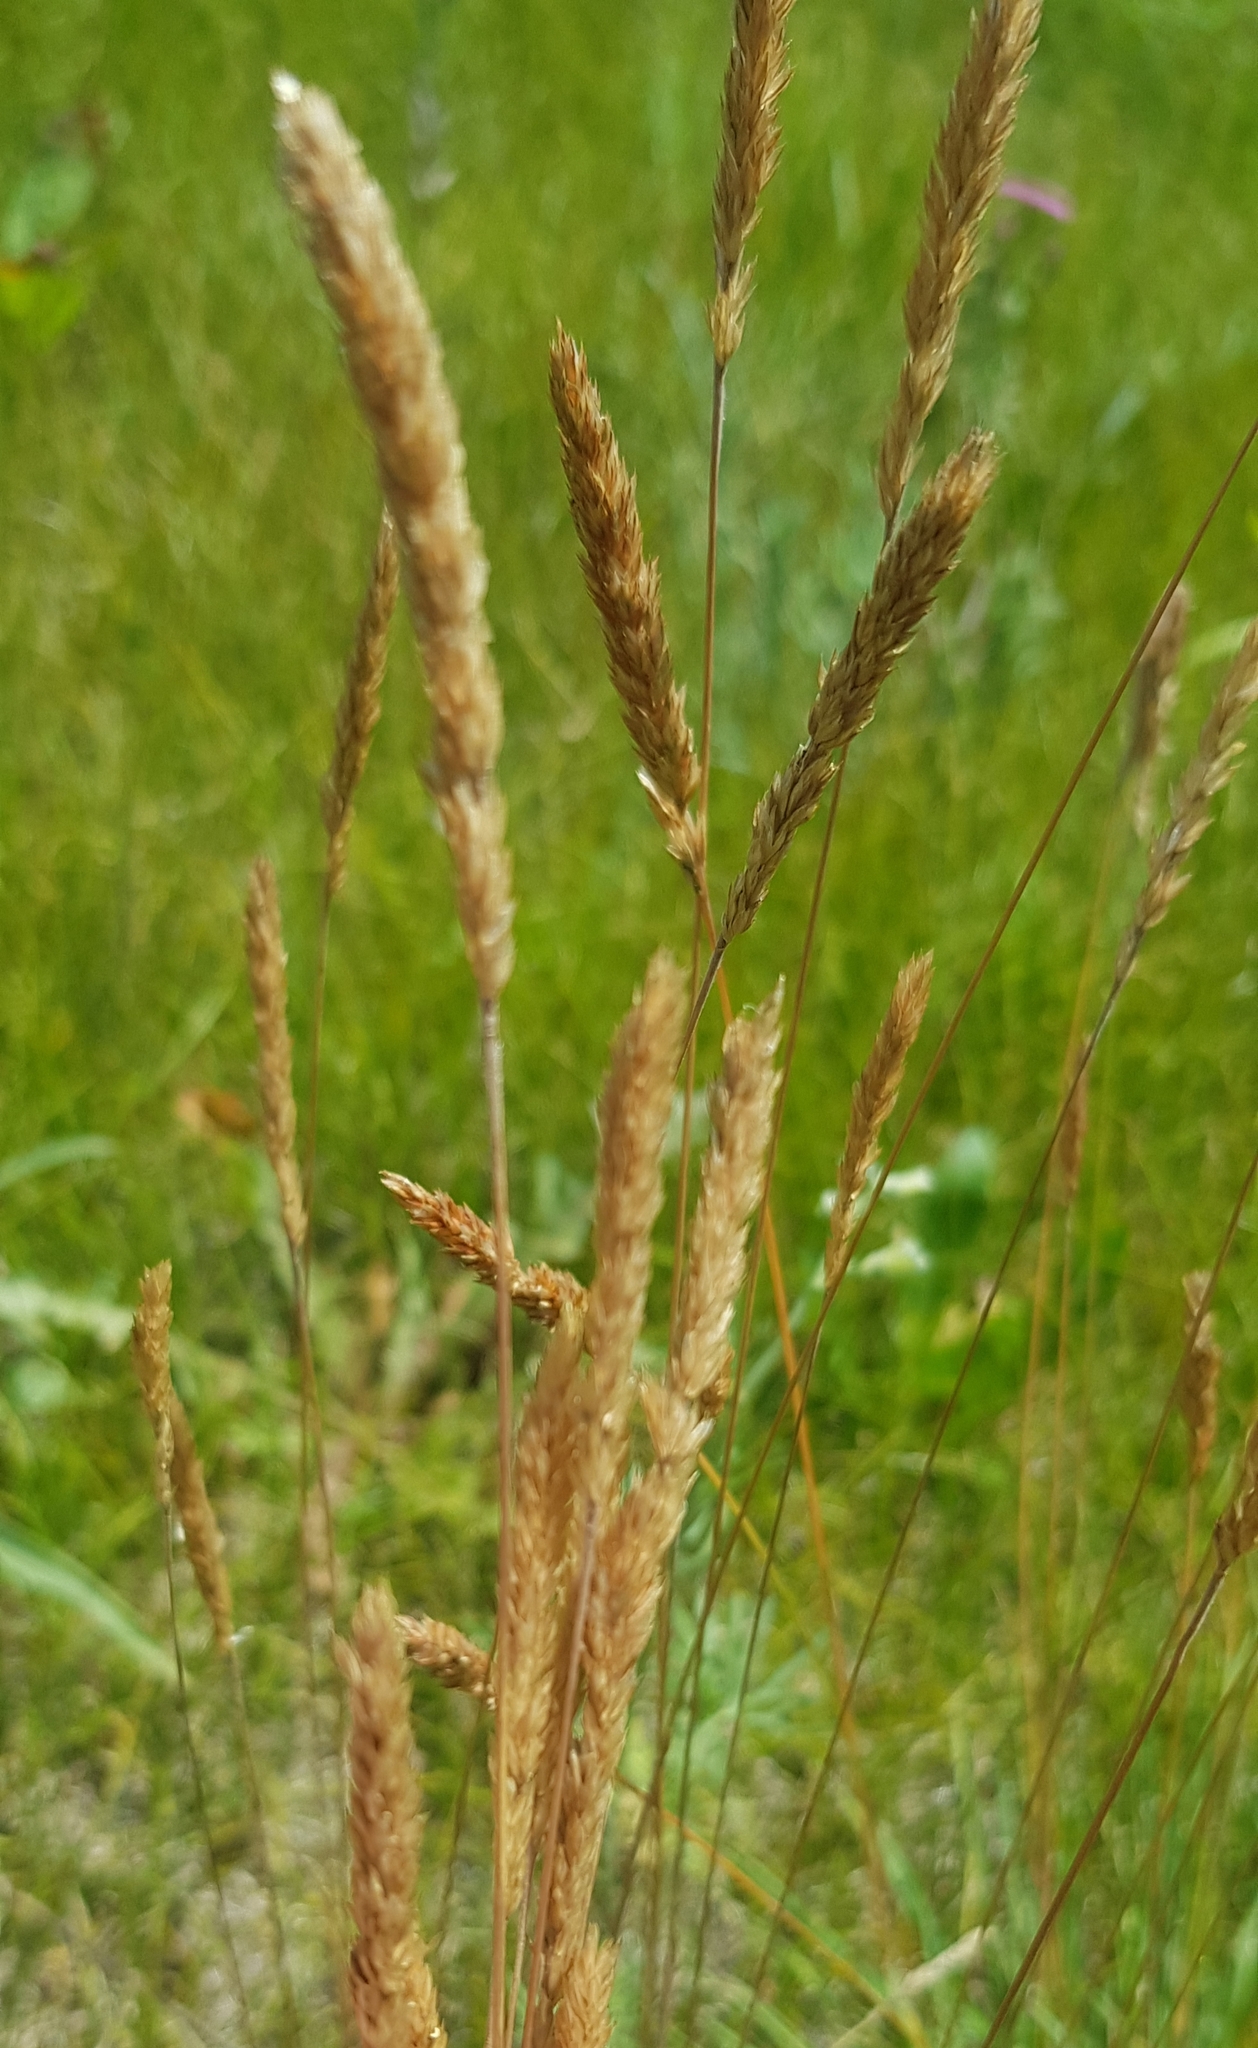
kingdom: Plantae
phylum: Tracheophyta
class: Liliopsida
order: Poales
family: Poaceae
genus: Koeleria
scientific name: Koeleria macrantha
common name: Crested hair-grass
